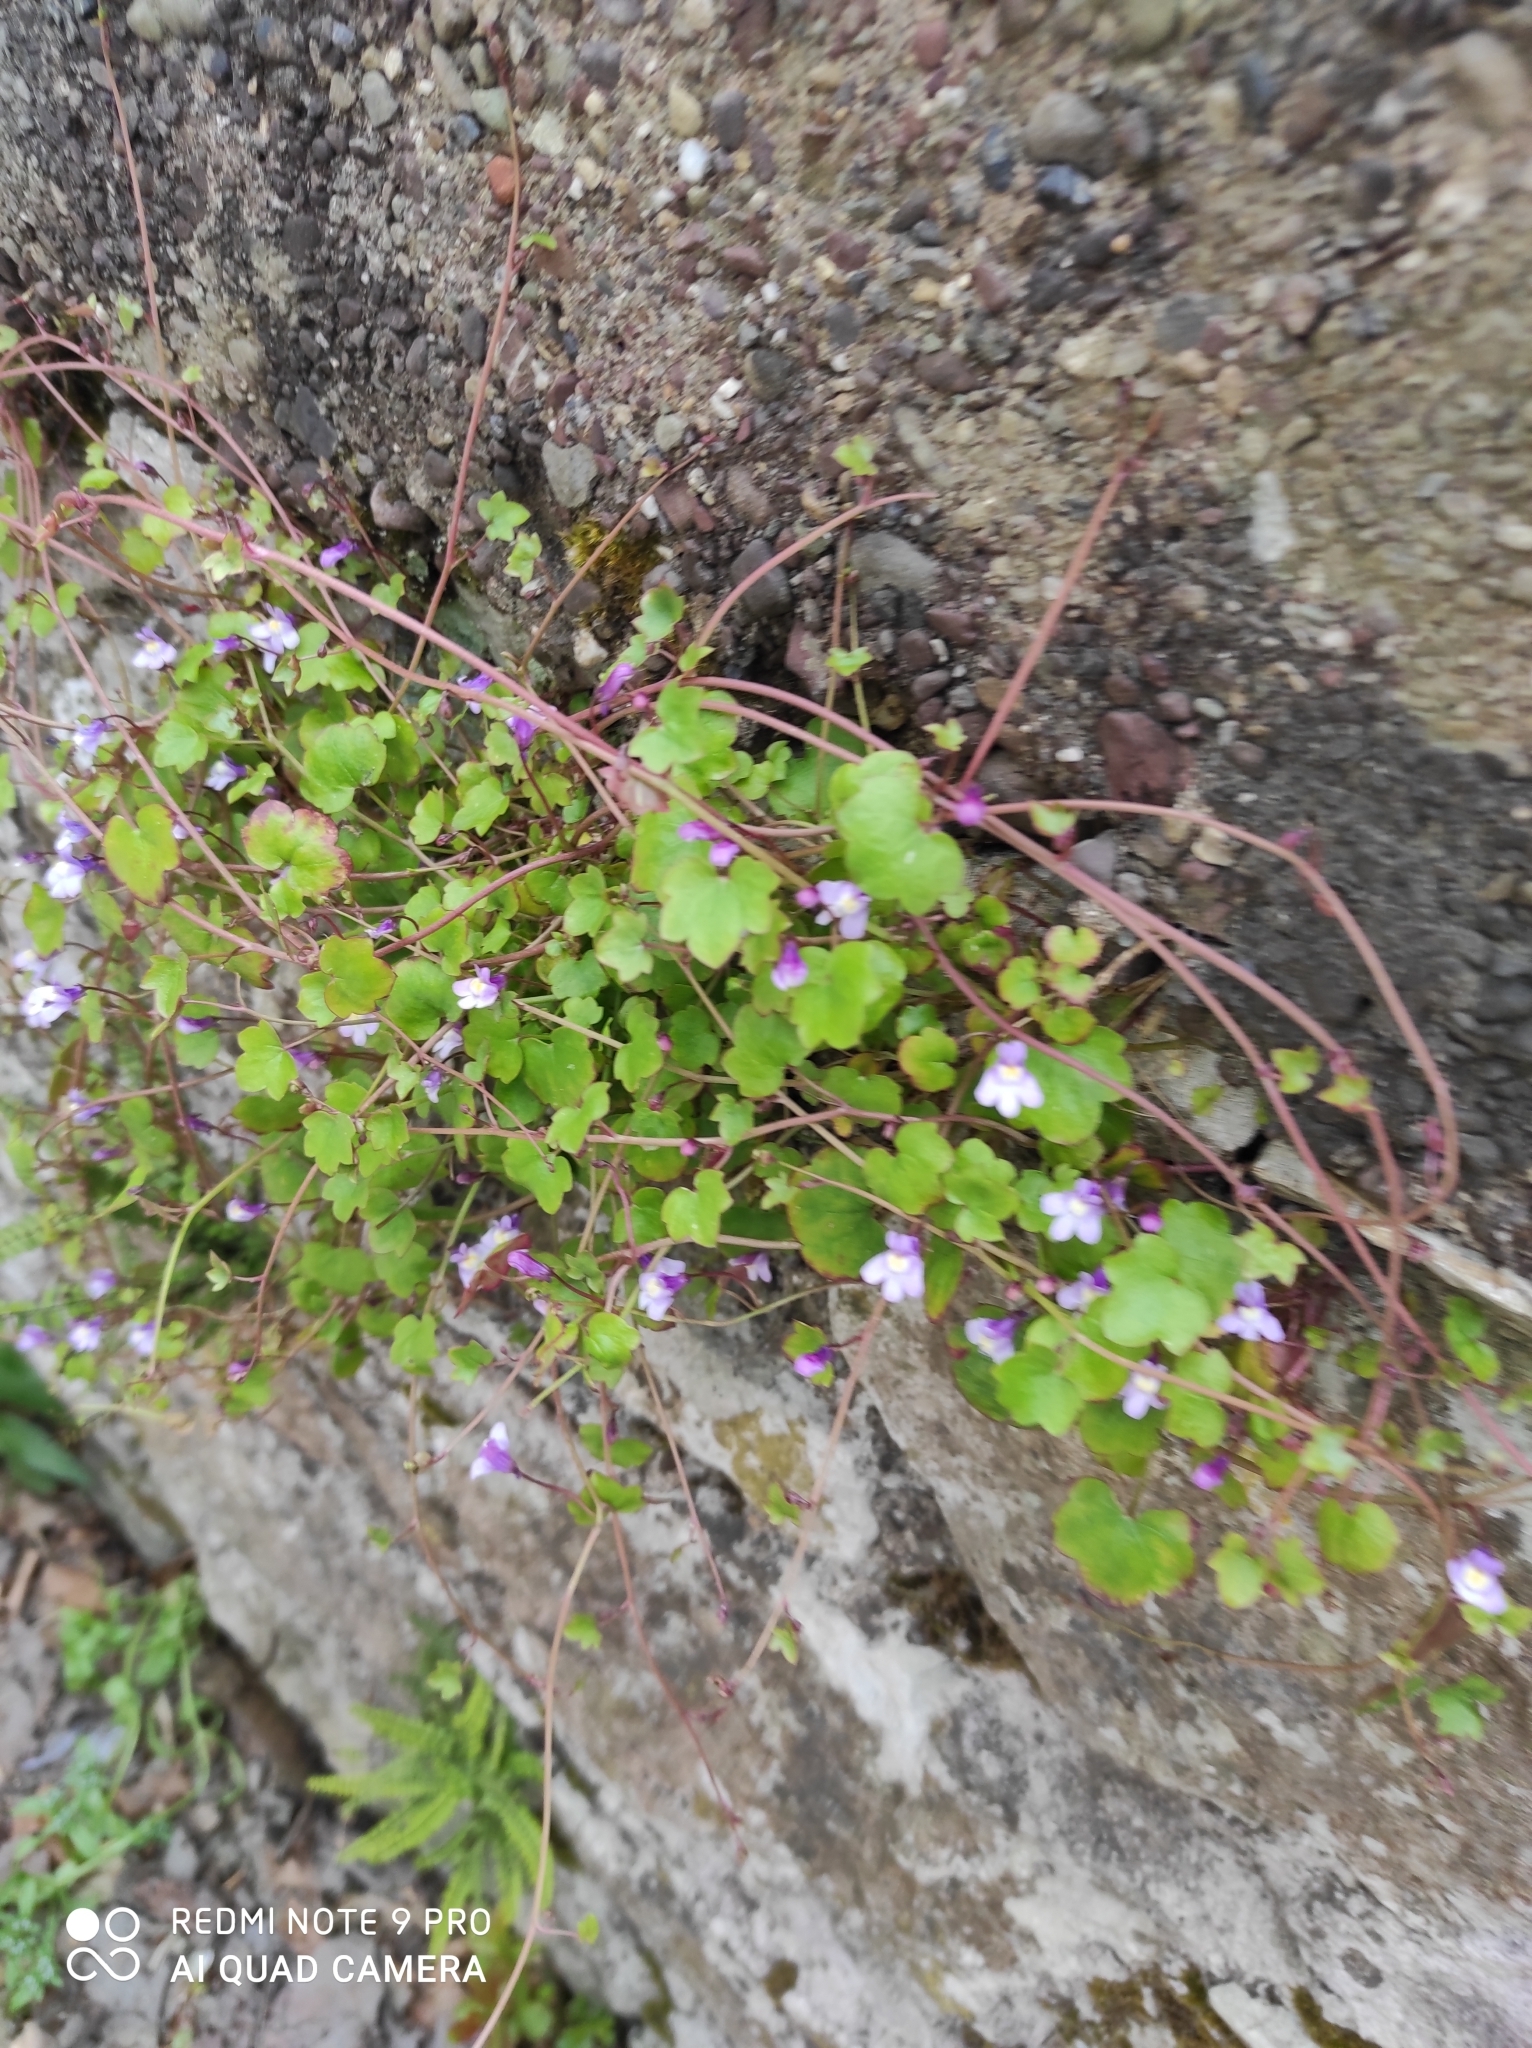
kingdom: Plantae
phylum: Tracheophyta
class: Magnoliopsida
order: Lamiales
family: Plantaginaceae
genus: Cymbalaria
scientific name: Cymbalaria muralis
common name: Ivy-leaved toadflax
